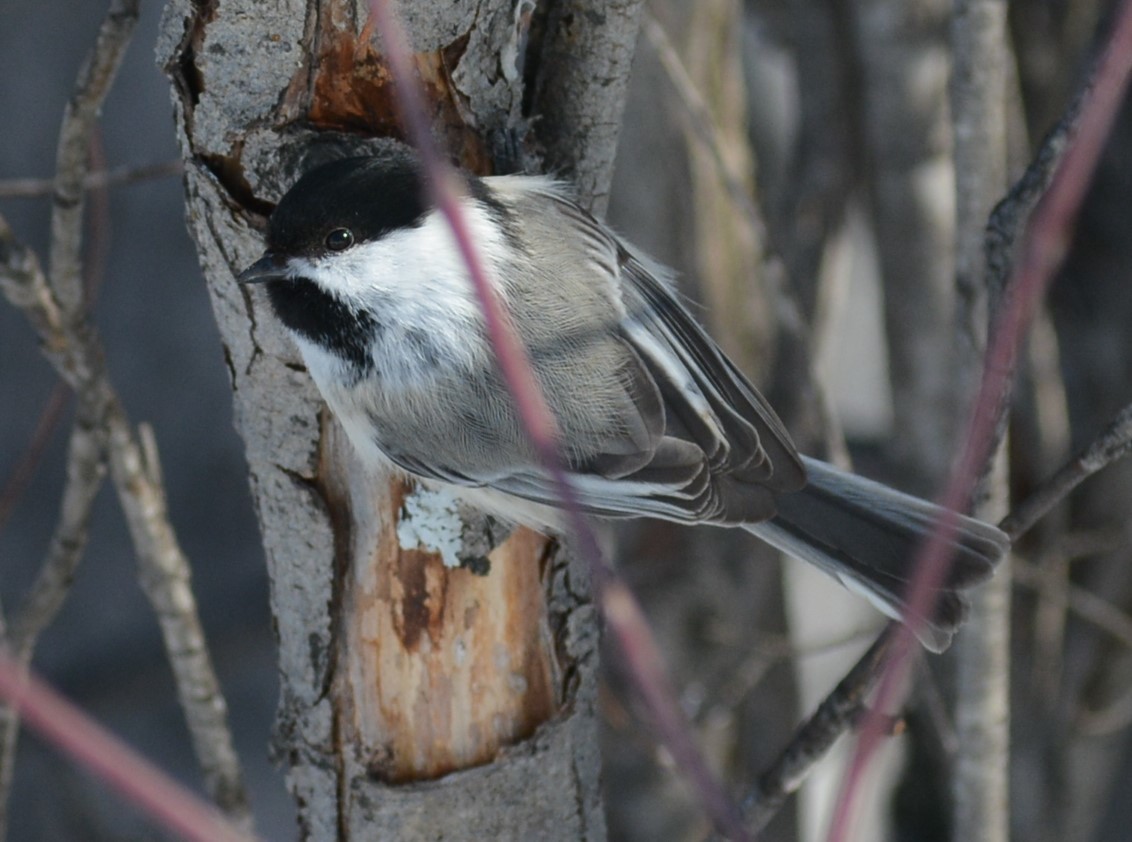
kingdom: Animalia
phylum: Chordata
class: Aves
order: Passeriformes
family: Paridae
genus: Poecile
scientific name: Poecile atricapillus
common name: Black-capped chickadee
